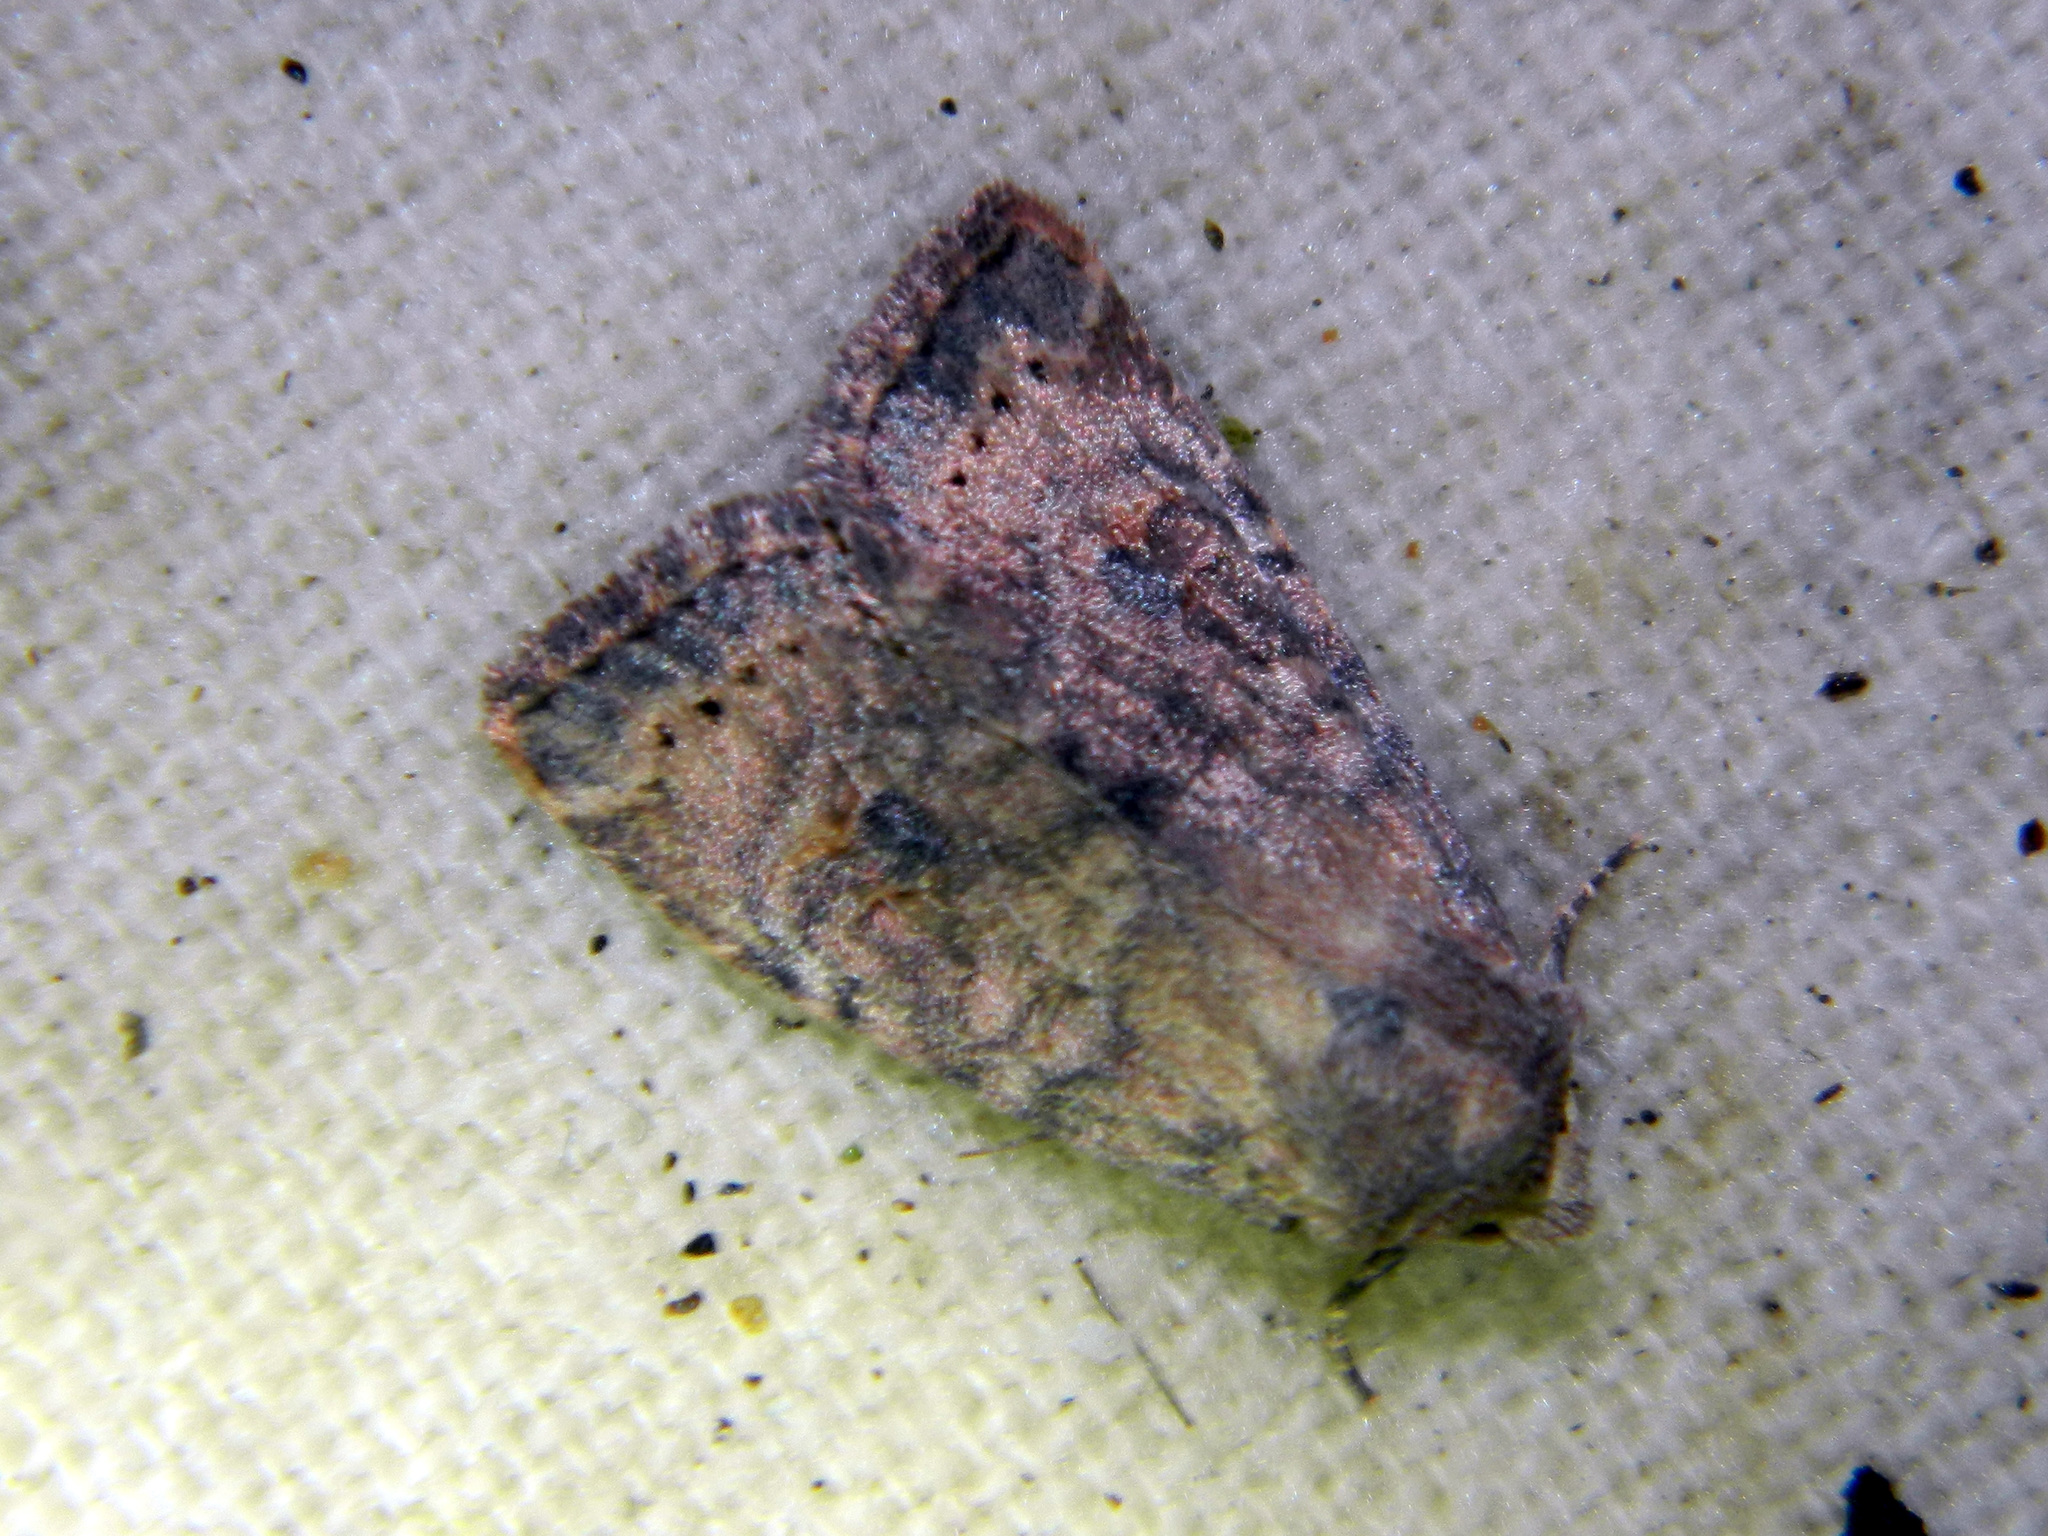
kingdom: Animalia
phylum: Arthropoda
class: Insecta
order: Lepidoptera
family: Noctuidae
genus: Anathix
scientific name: Anathix puta
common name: Puta sallow
